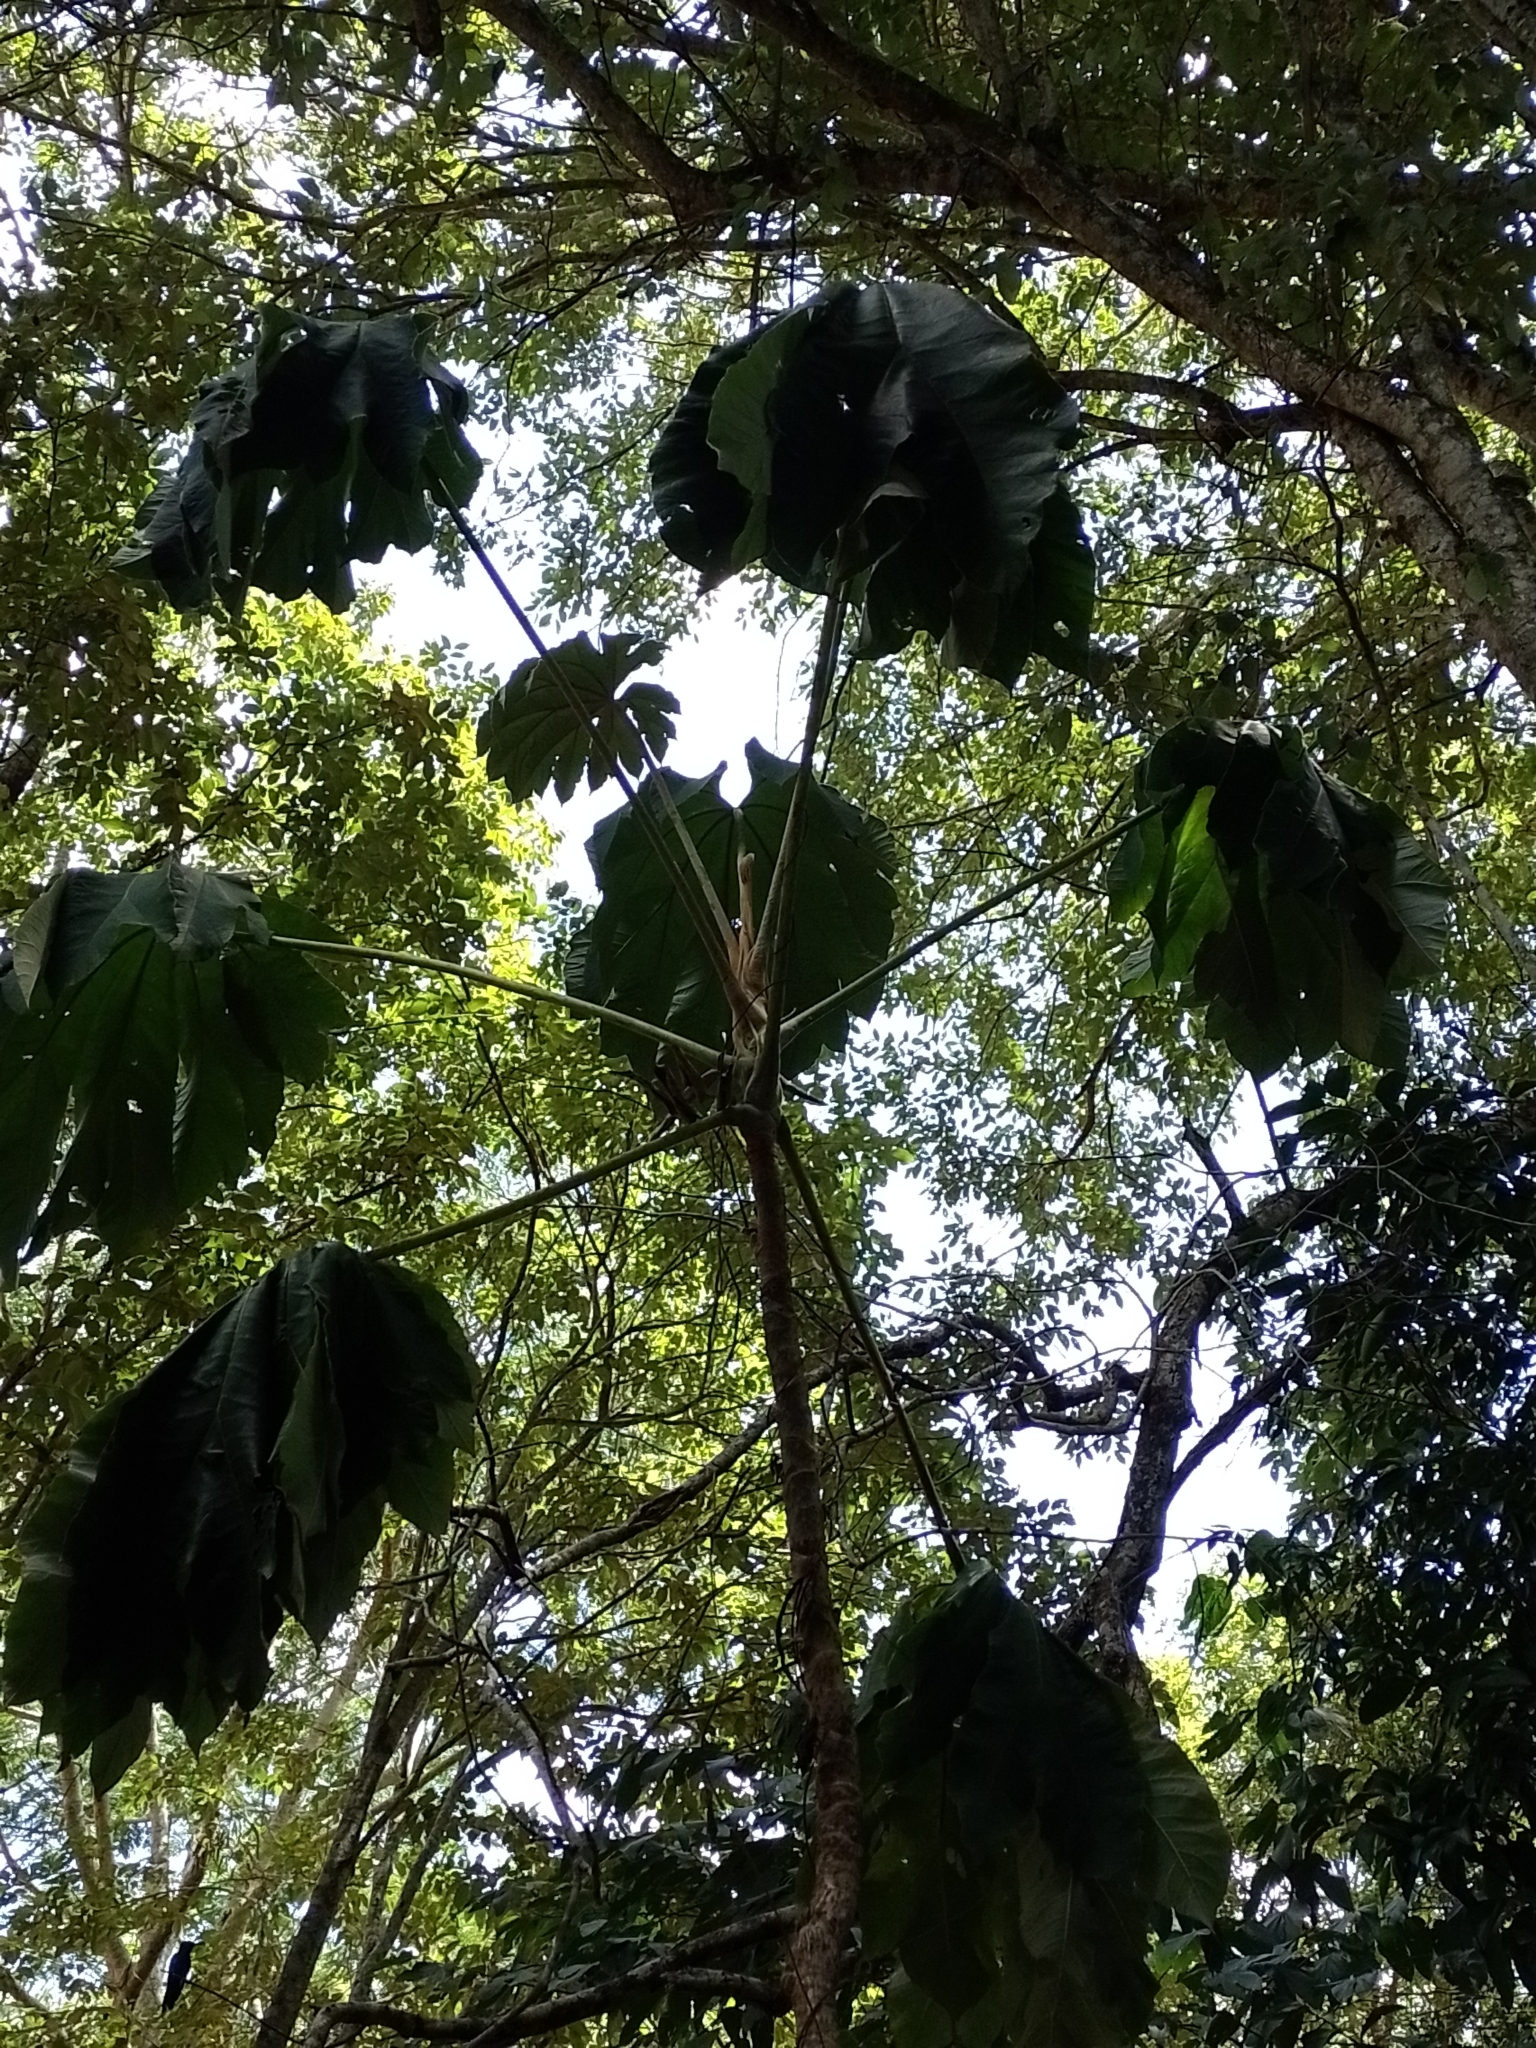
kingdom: Plantae
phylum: Tracheophyta
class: Magnoliopsida
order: Rosales
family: Urticaceae
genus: Cecropia
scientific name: Cecropia pachystachya
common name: Ambay pumpwood
